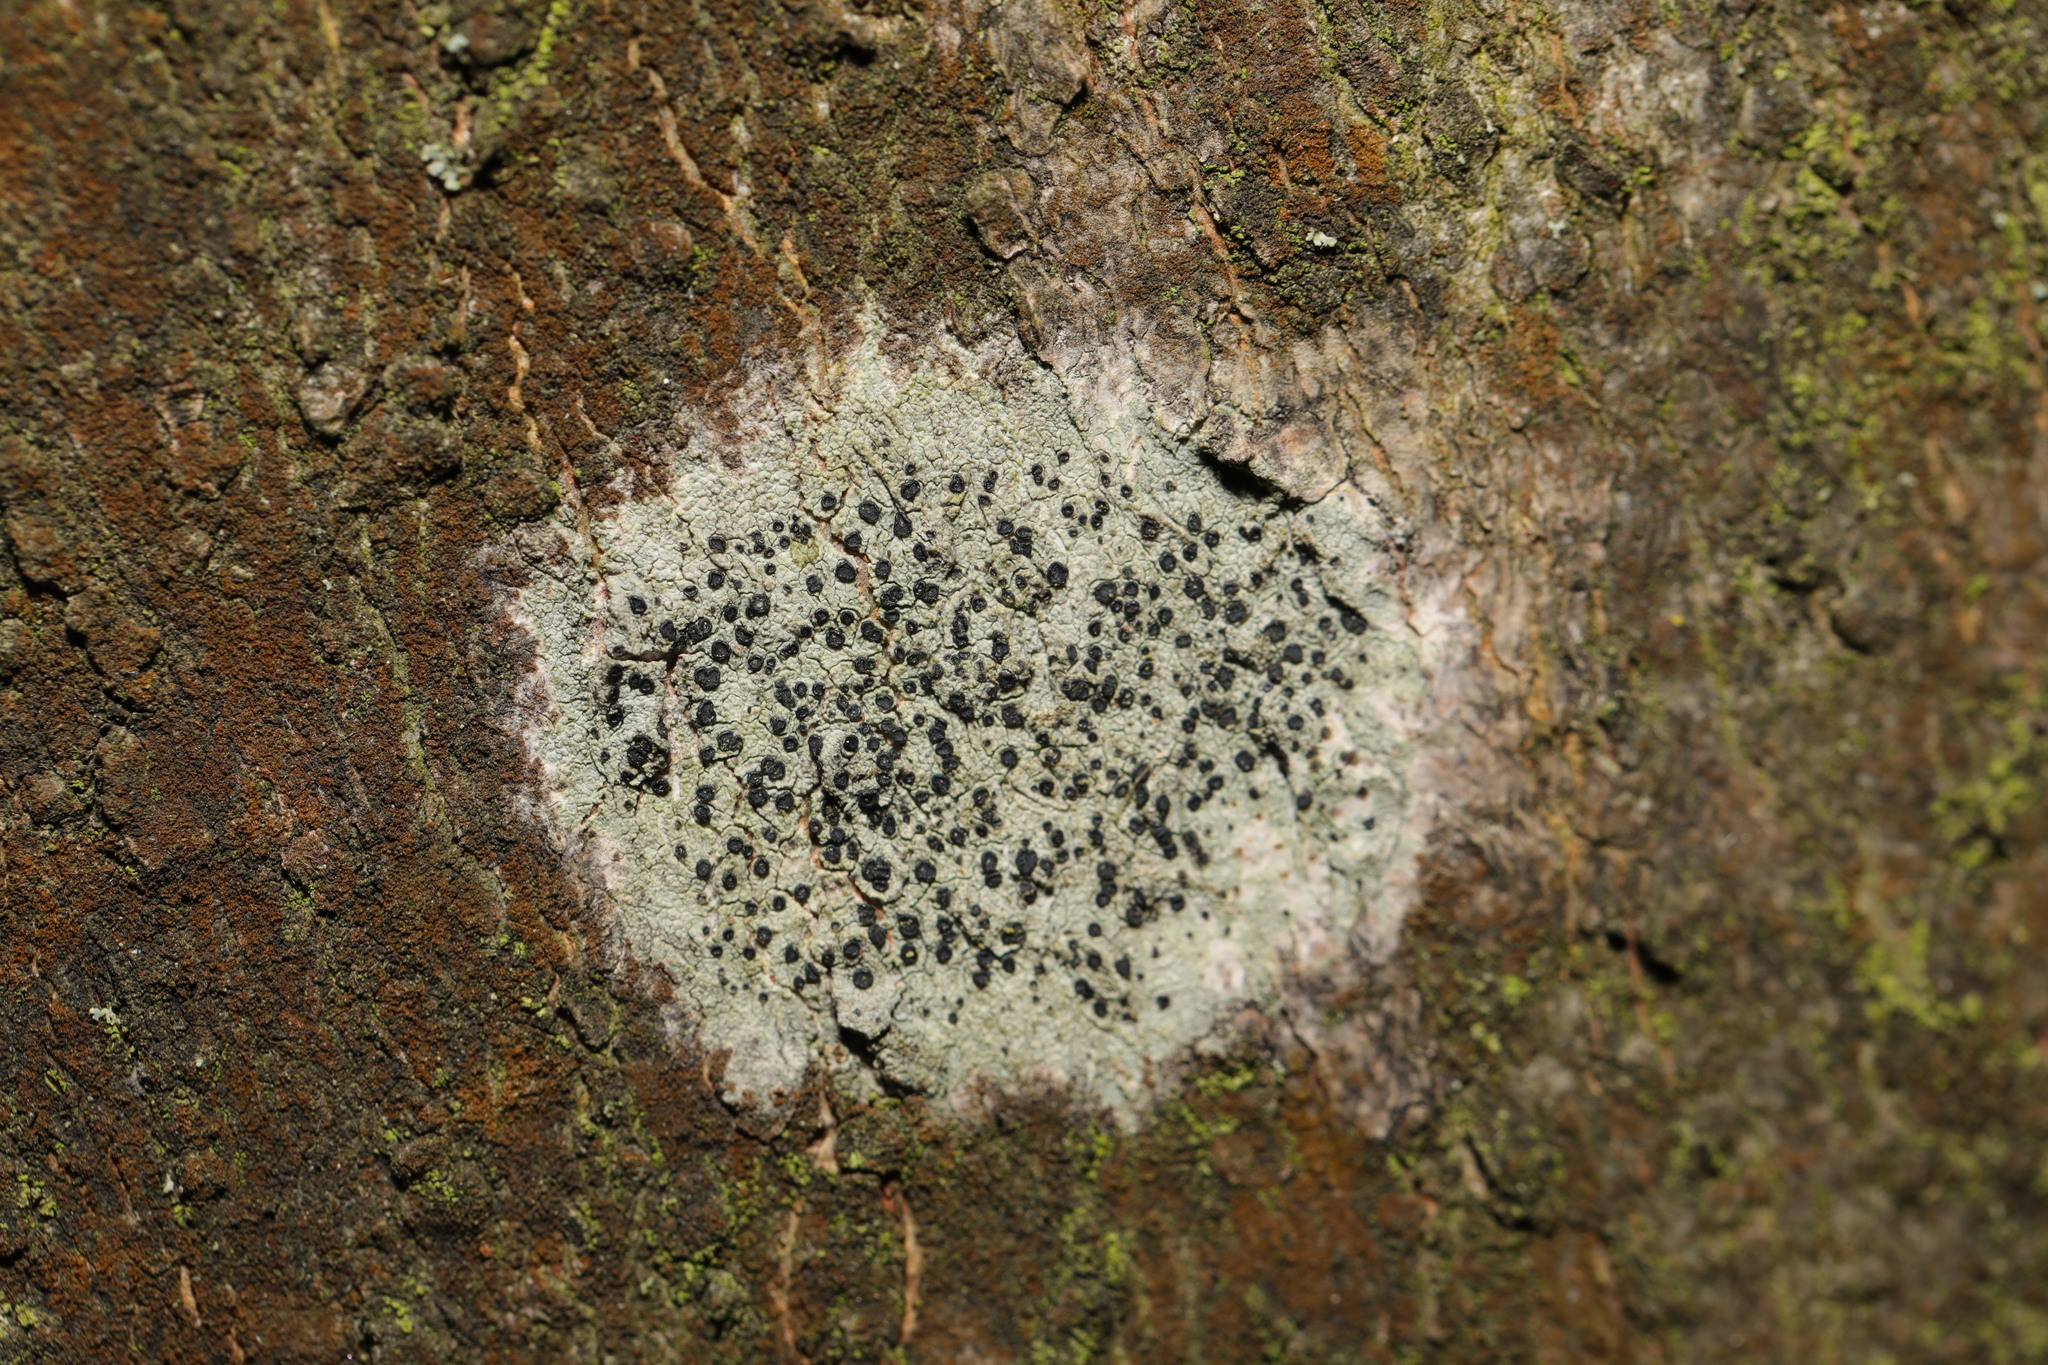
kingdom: Fungi
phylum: Ascomycota
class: Lecanoromycetes
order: Lecanorales
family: Lecanoraceae
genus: Lecidella
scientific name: Lecidella elaeochroma
